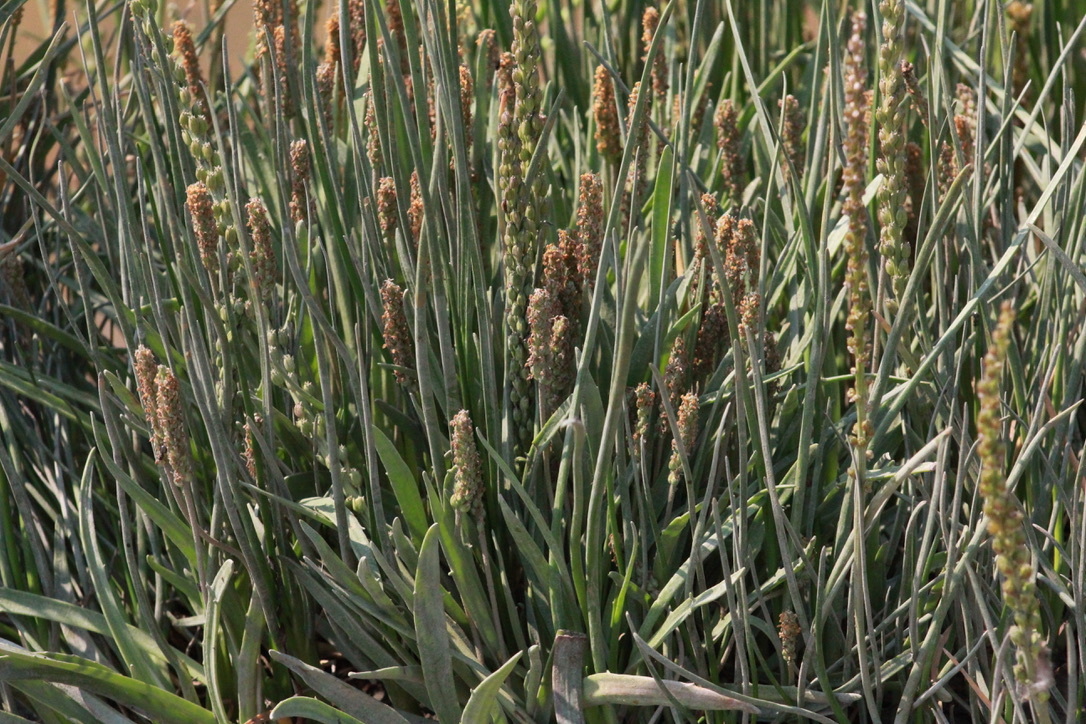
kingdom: Plantae
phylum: Tracheophyta
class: Magnoliopsida
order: Lamiales
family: Plantaginaceae
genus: Plantago
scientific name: Plantago maritima
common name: Sea plantain
